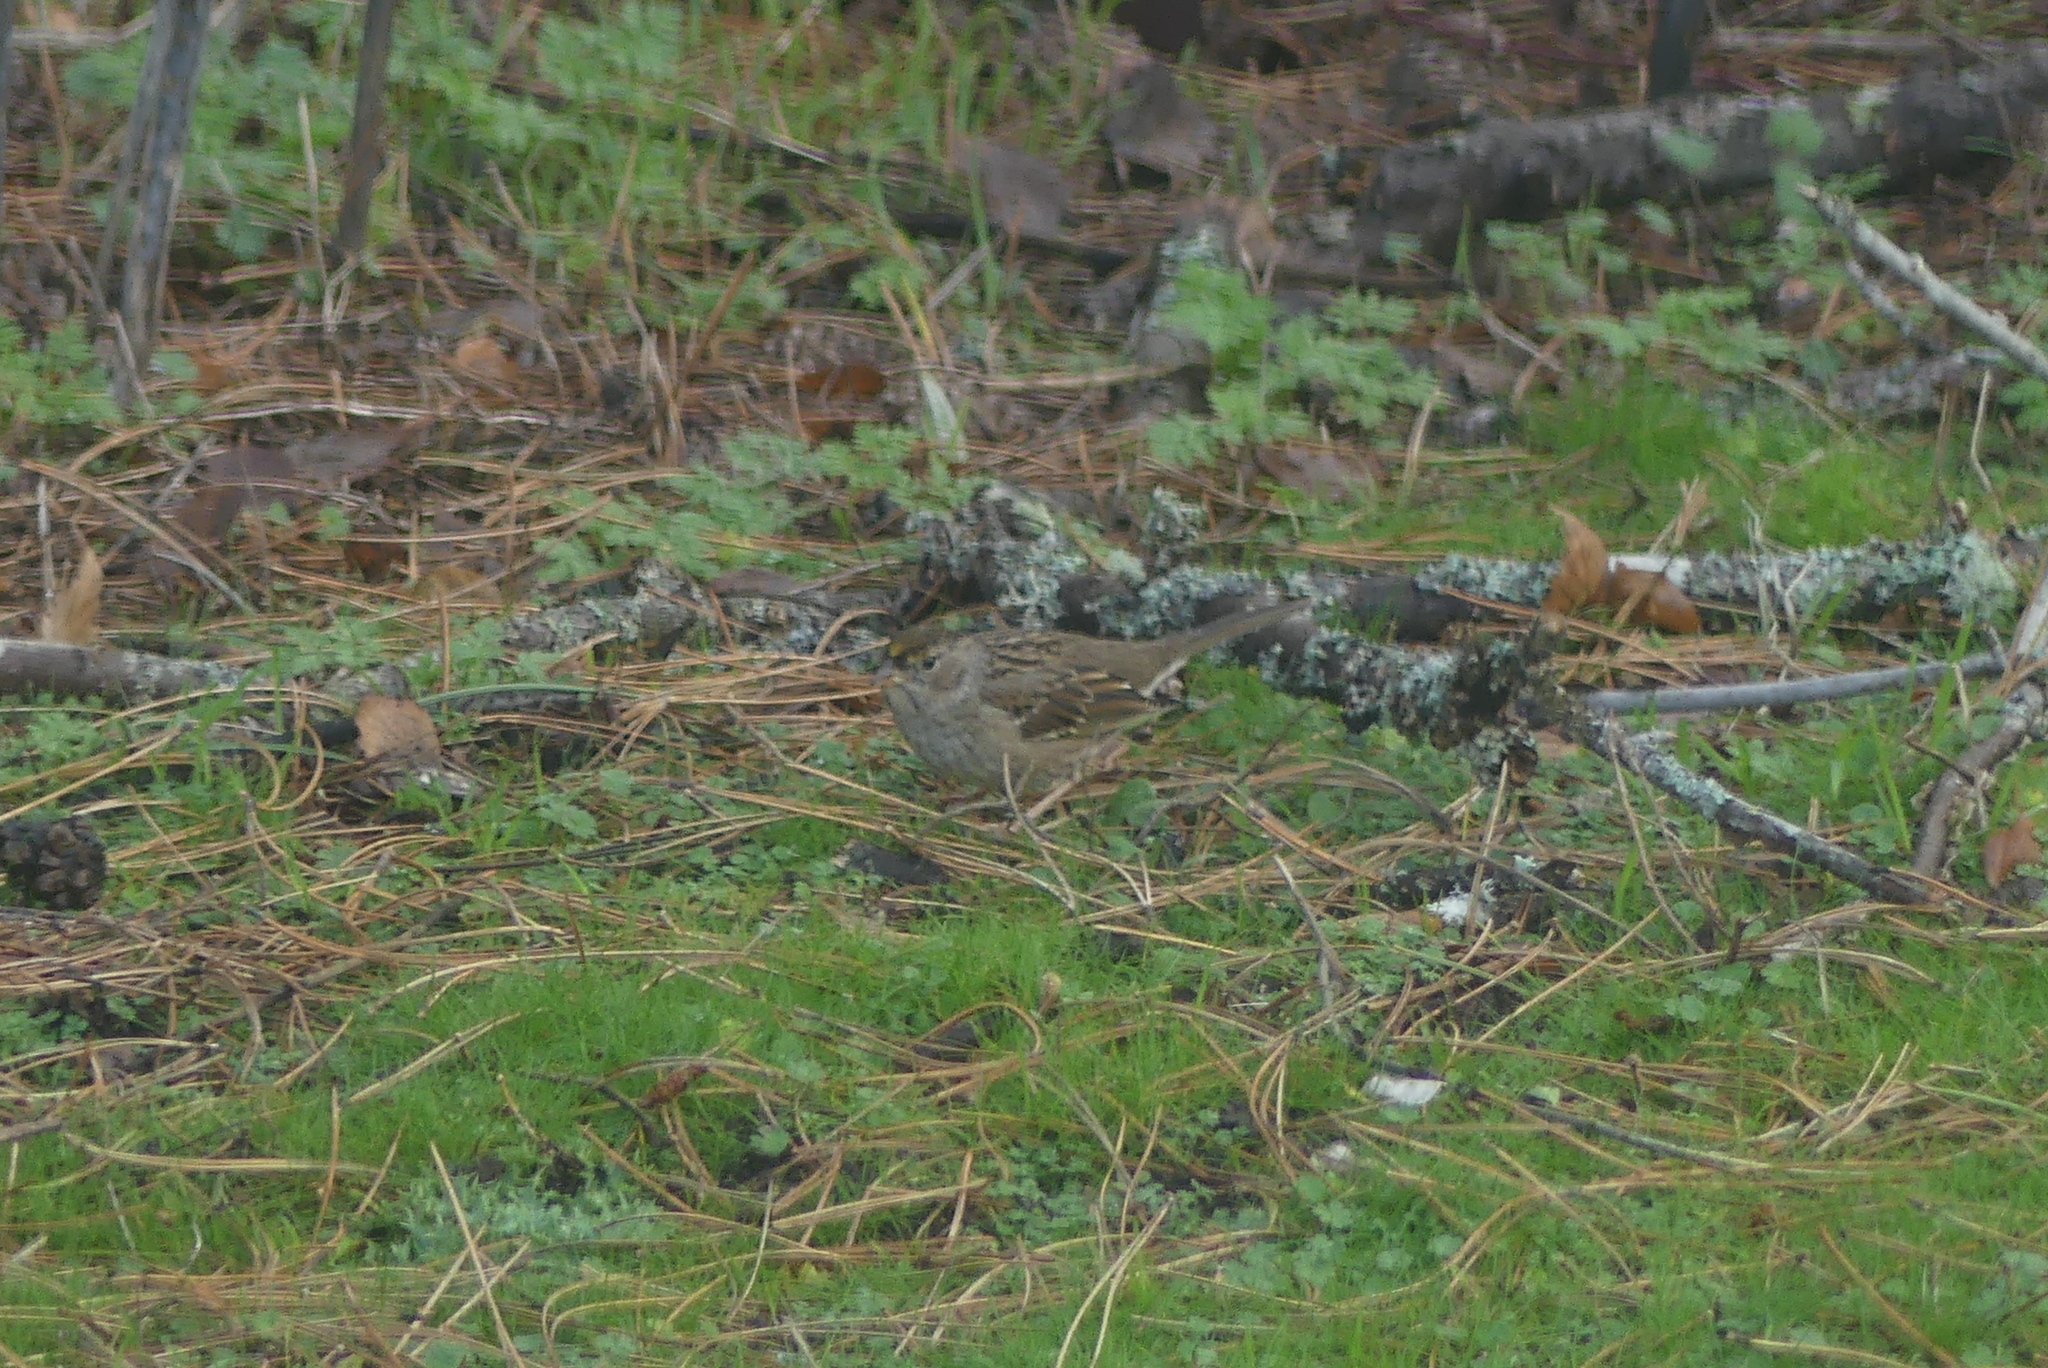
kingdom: Animalia
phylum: Chordata
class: Aves
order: Passeriformes
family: Passerellidae
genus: Zonotrichia
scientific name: Zonotrichia atricapilla
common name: Golden-crowned sparrow
